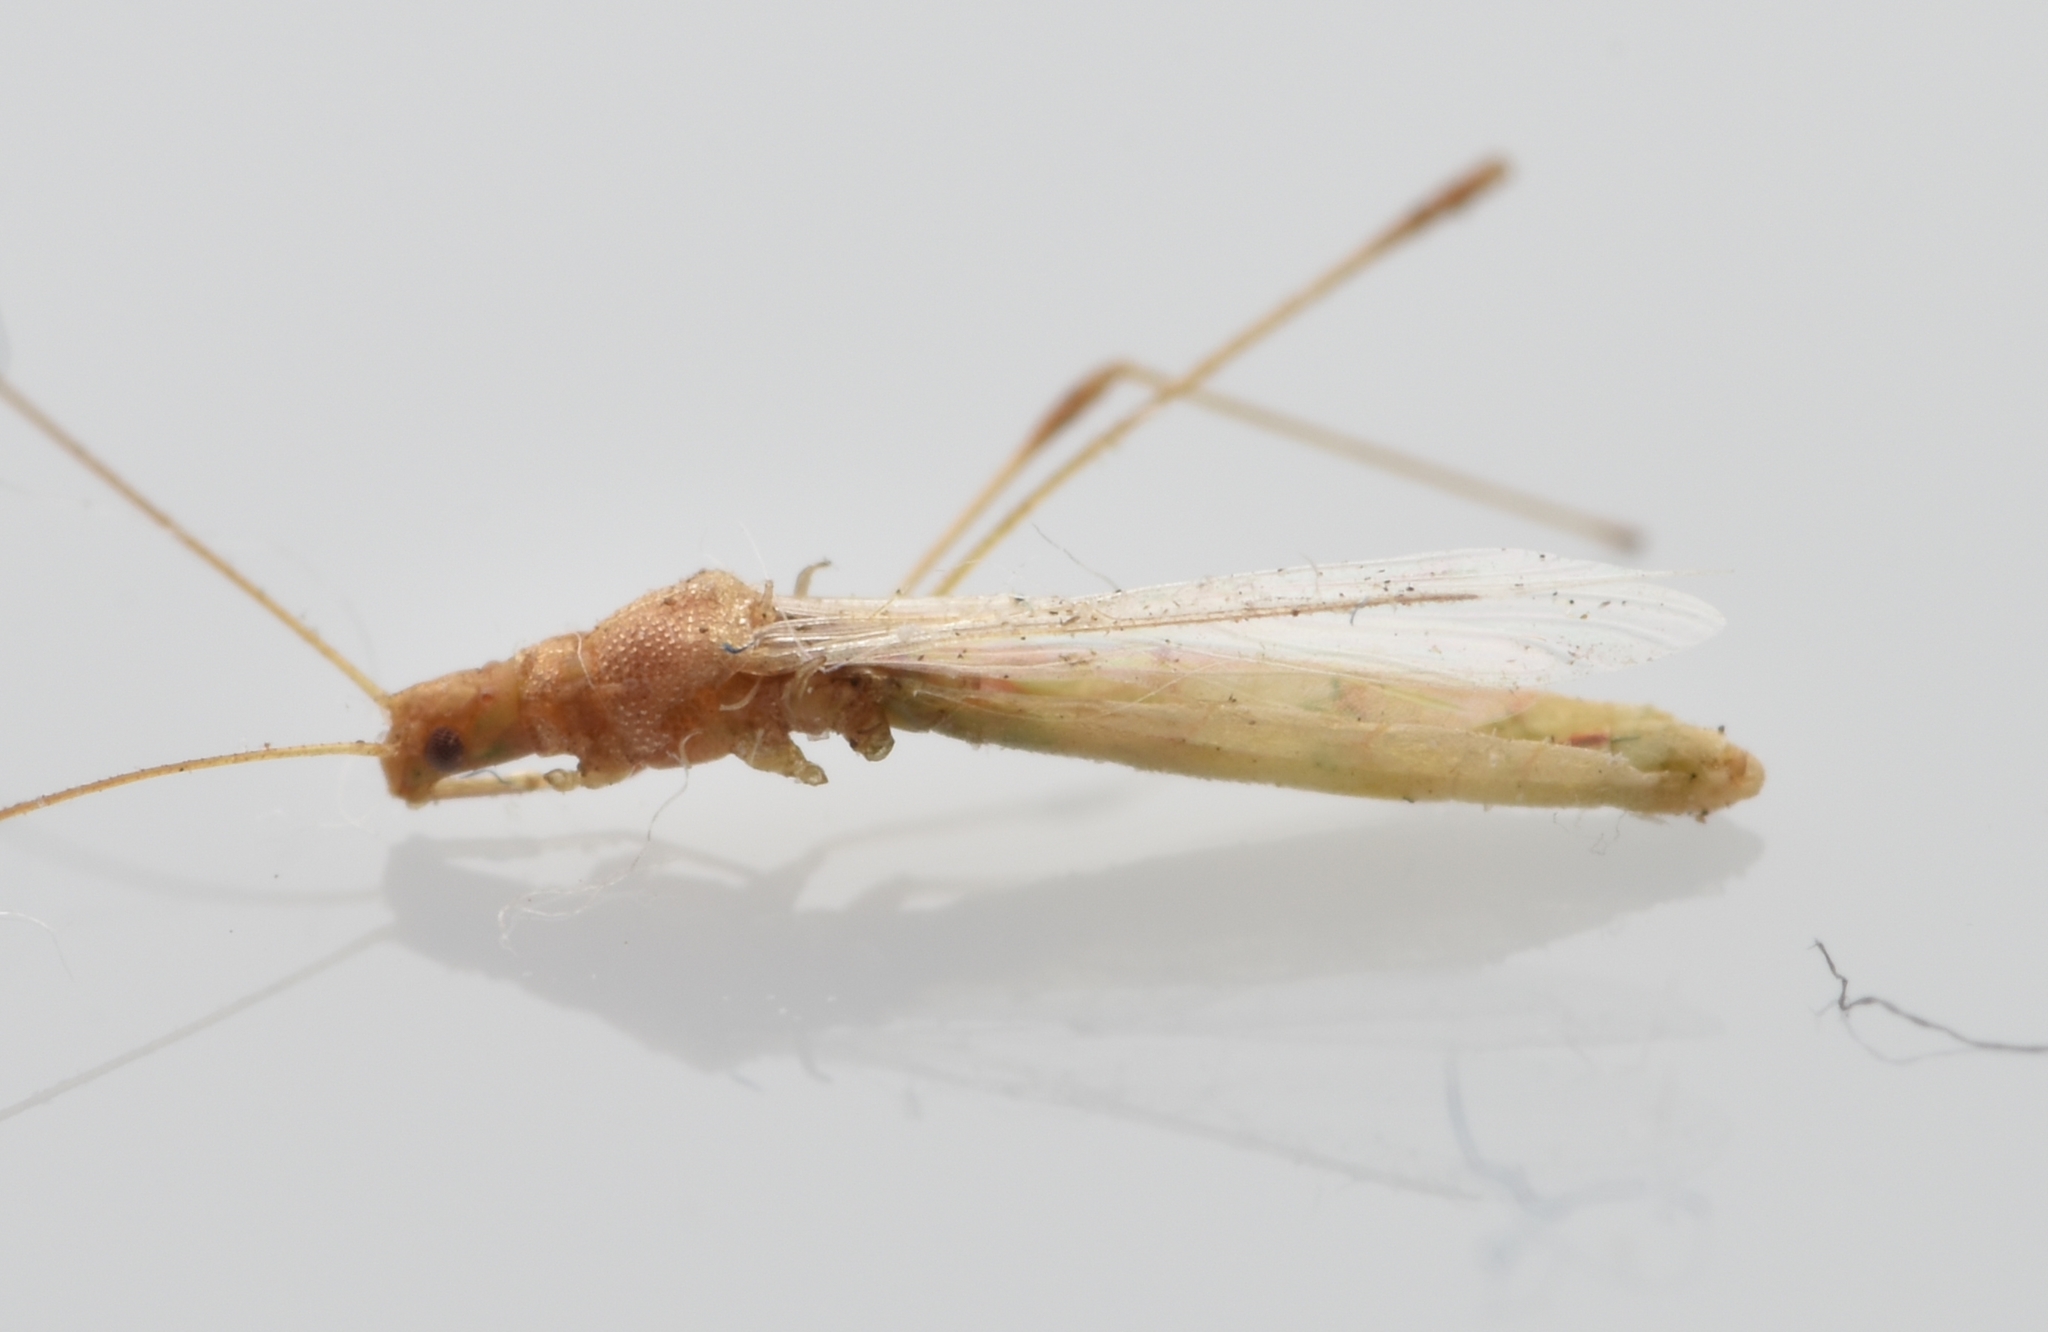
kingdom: Animalia
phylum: Arthropoda
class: Insecta
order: Hemiptera
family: Berytidae
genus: Metacanthus
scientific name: Metacanthus multispinus
